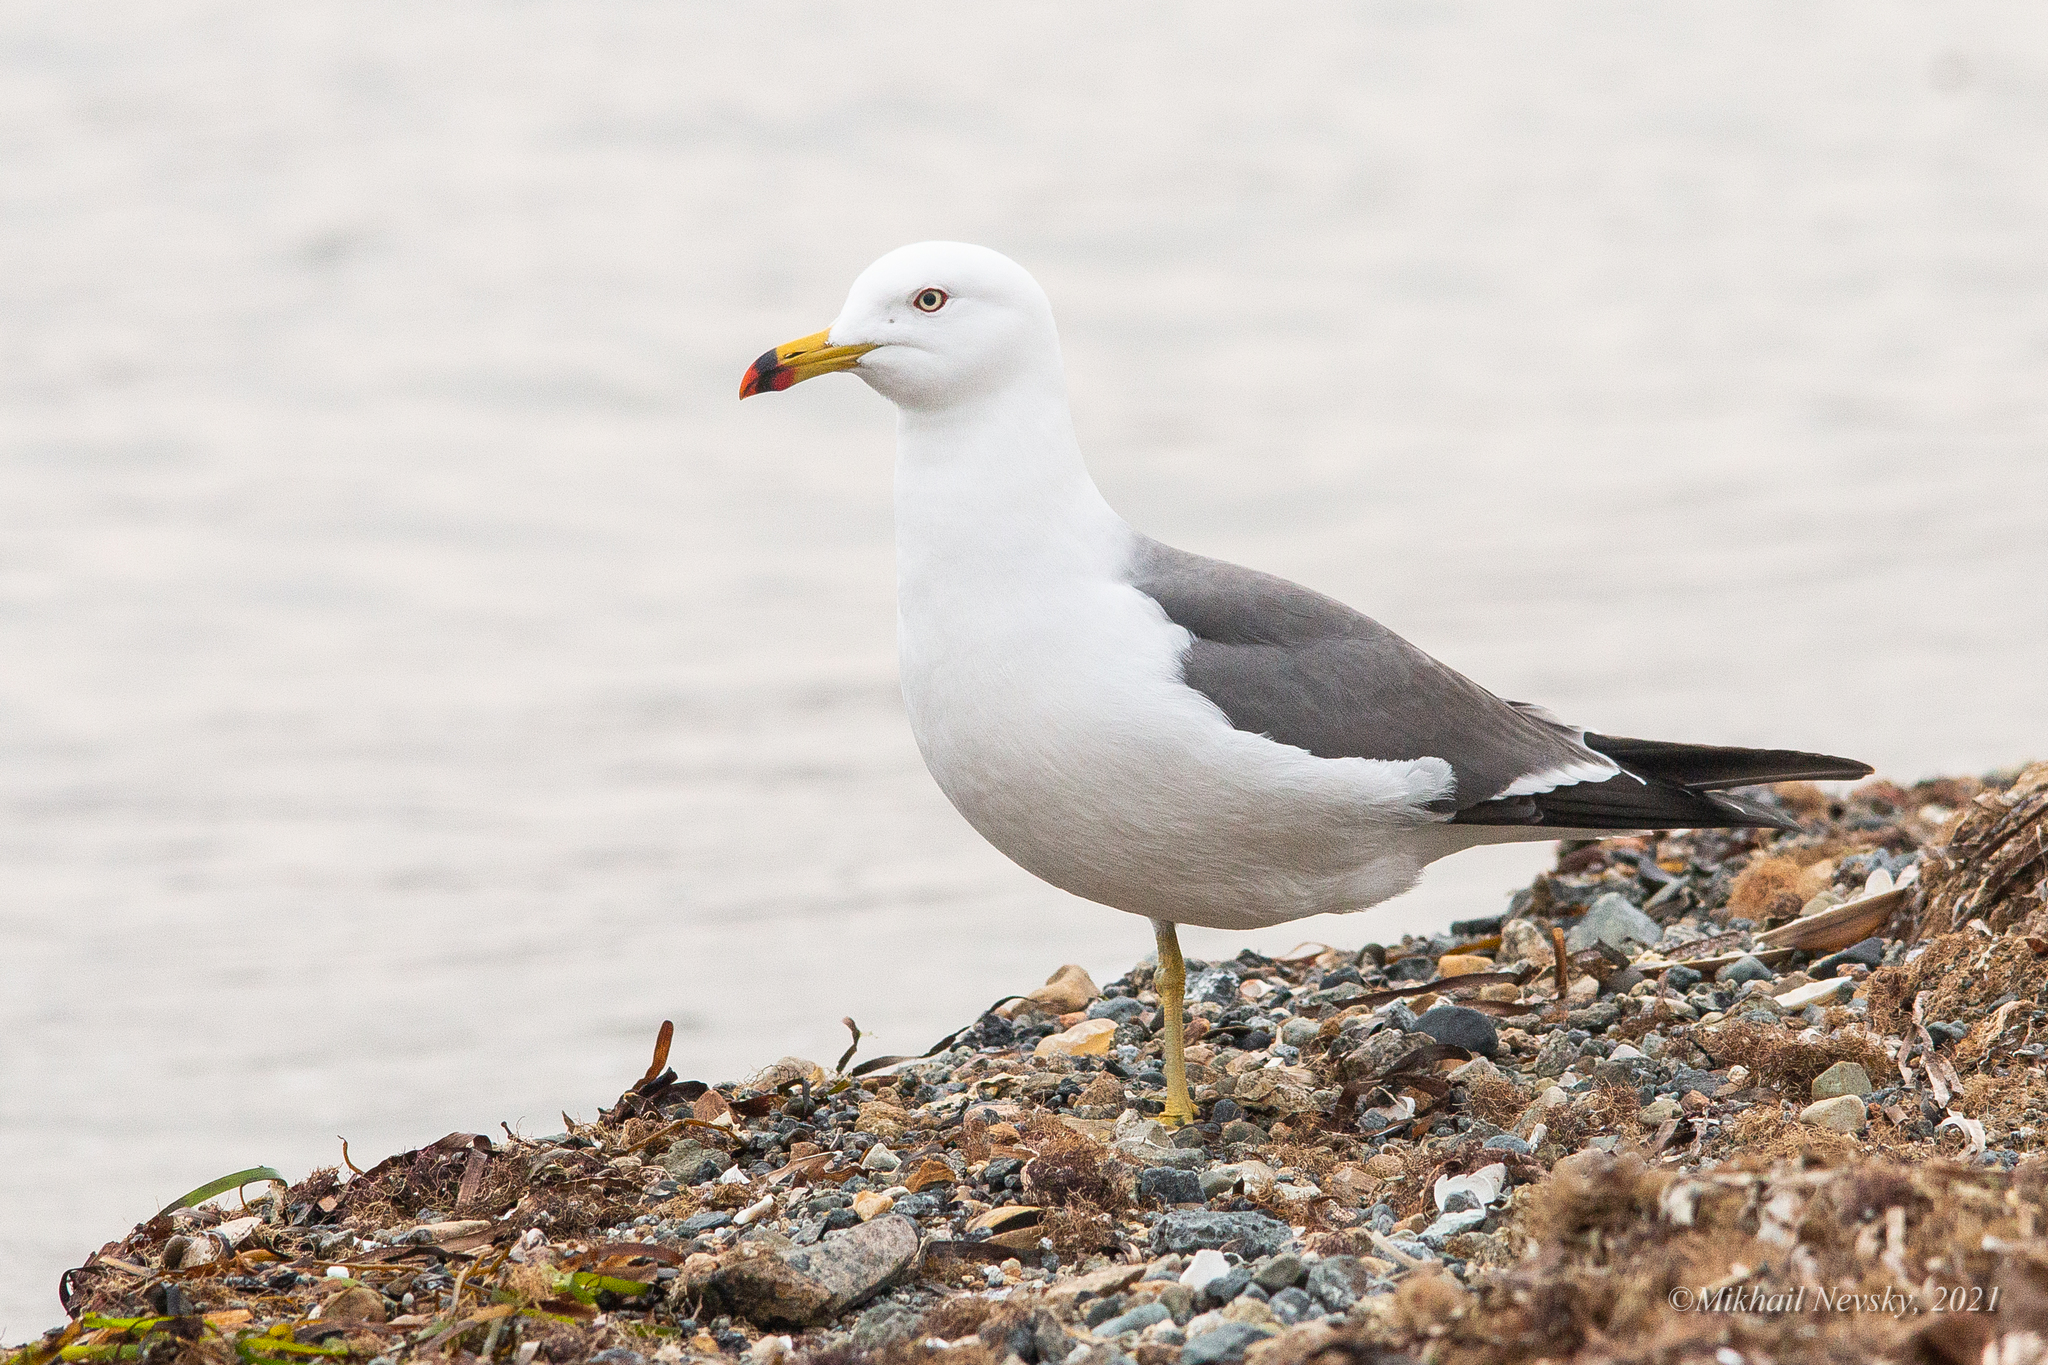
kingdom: Animalia
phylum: Chordata
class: Aves
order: Charadriiformes
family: Laridae
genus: Larus
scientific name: Larus crassirostris
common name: Black-tailed gull
